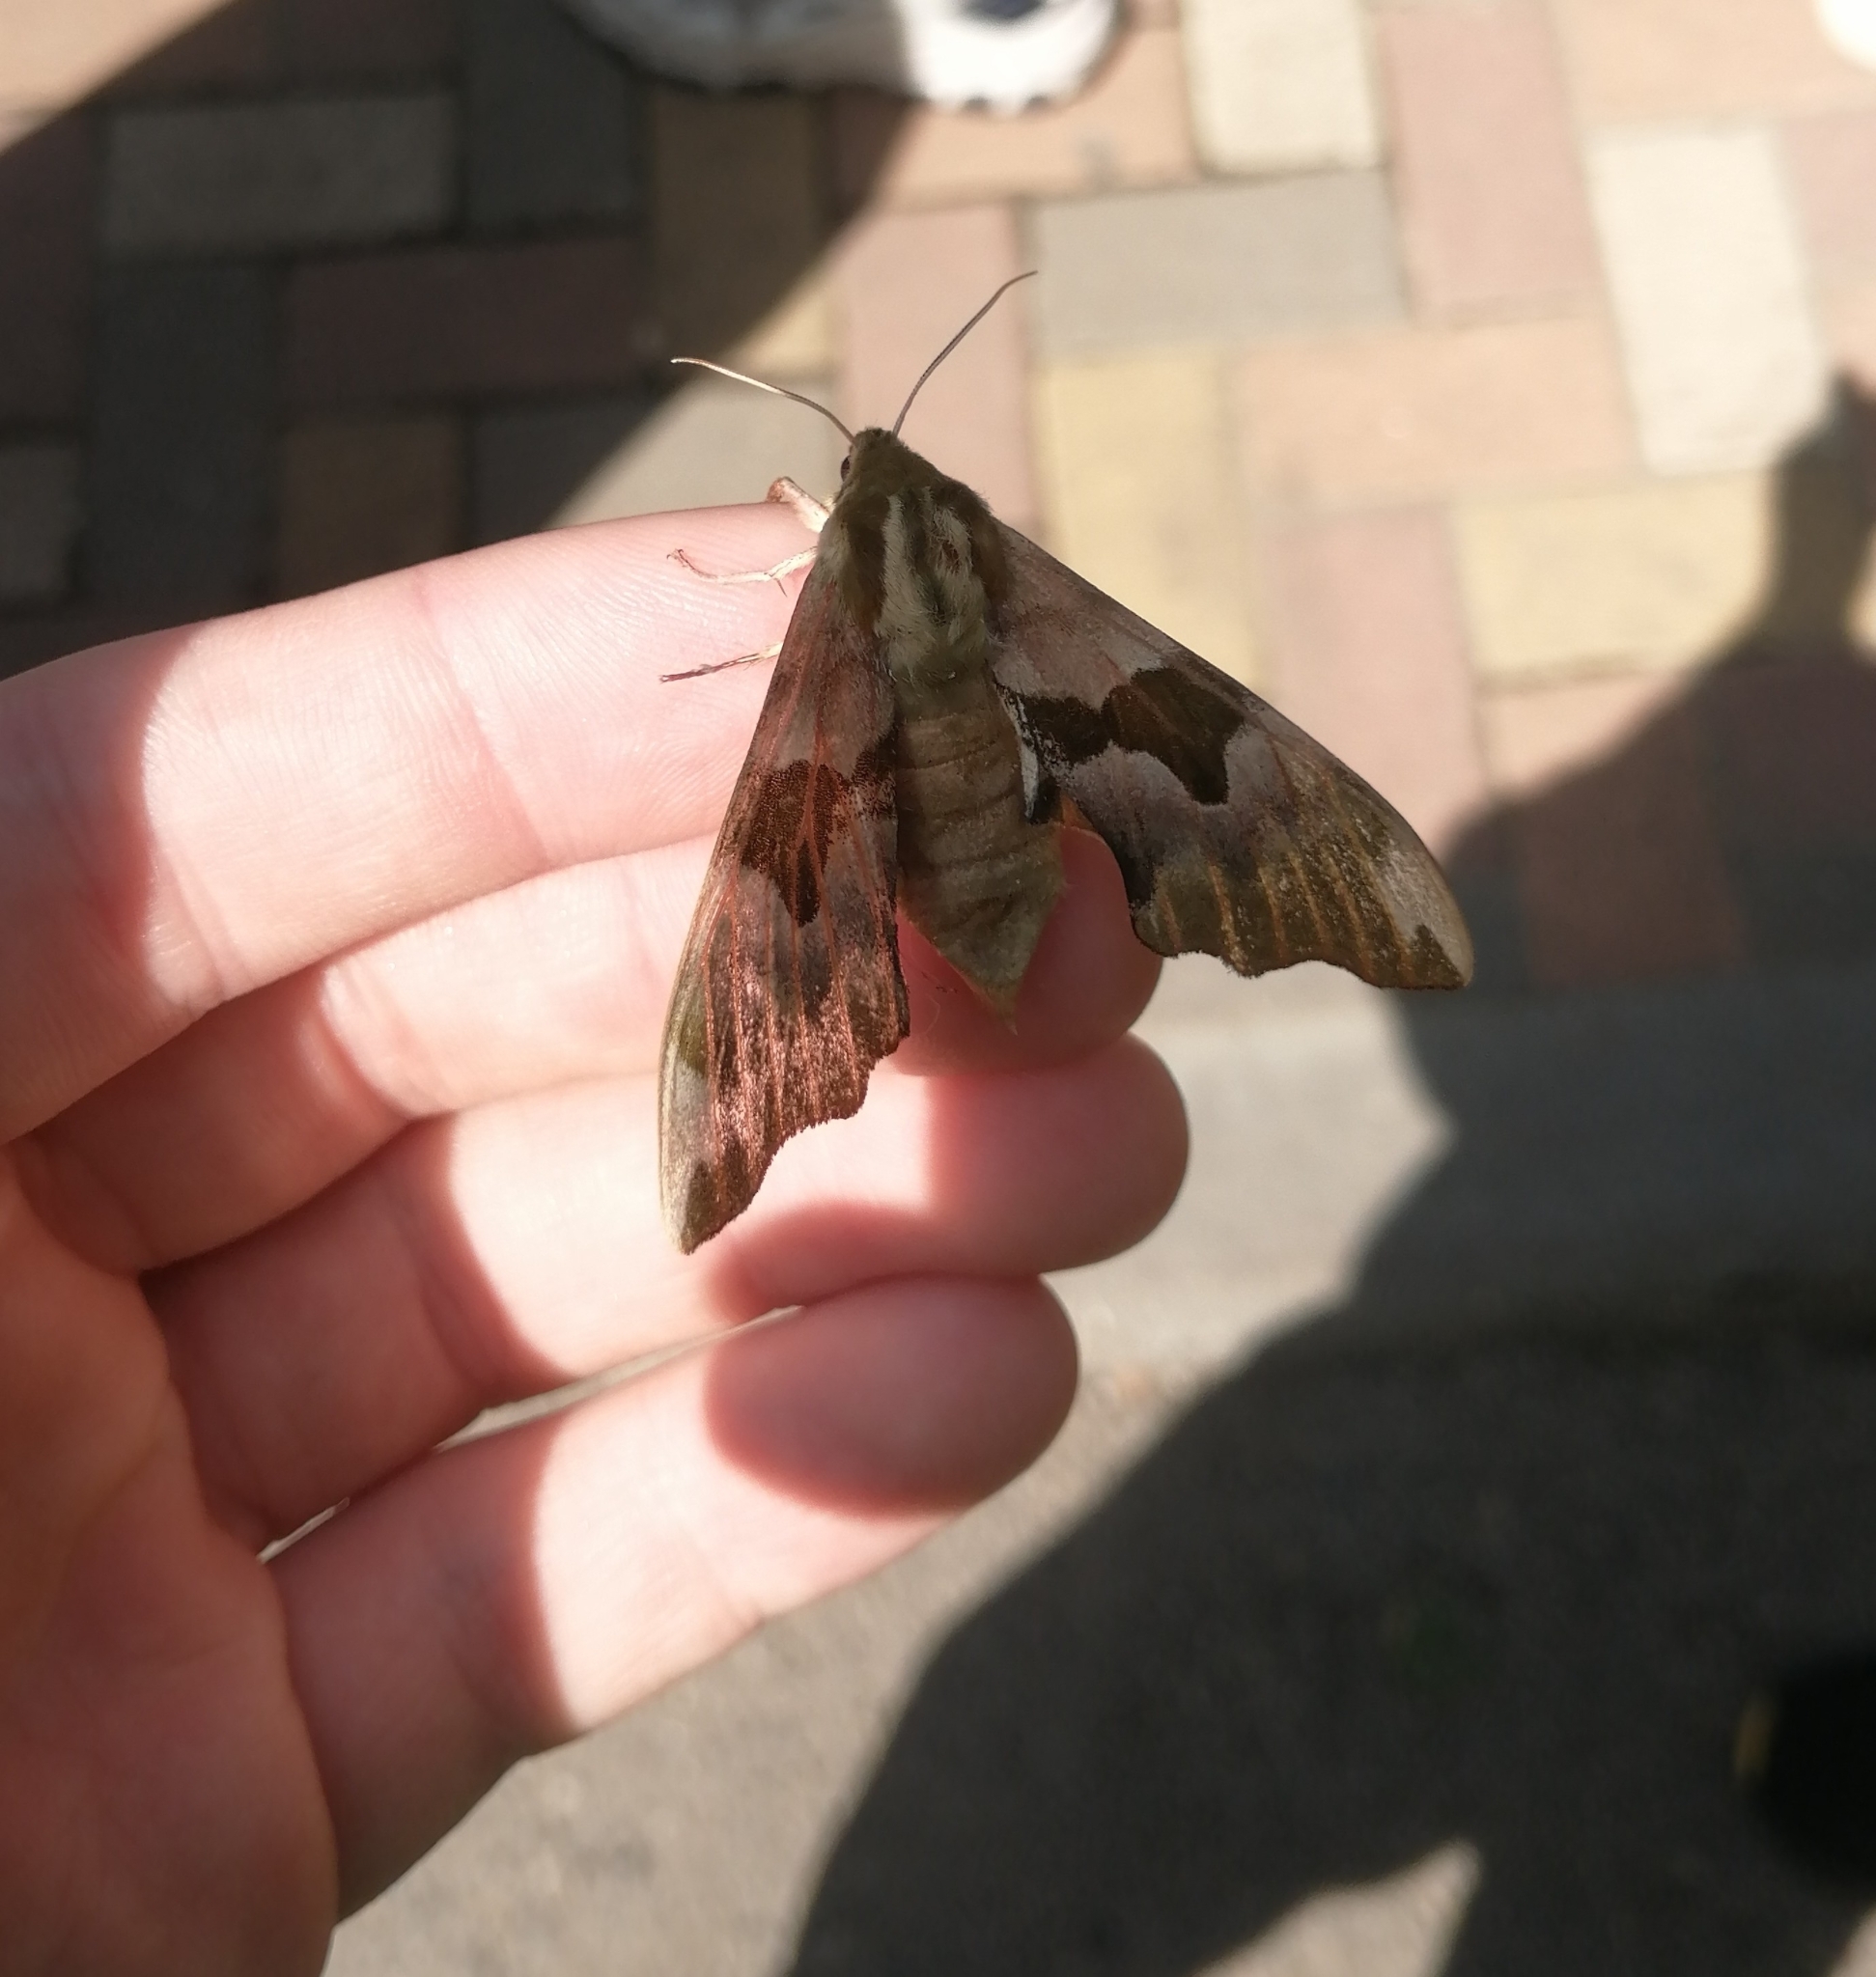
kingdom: Animalia
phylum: Arthropoda
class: Insecta
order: Lepidoptera
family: Sphingidae
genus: Mimas
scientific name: Mimas tiliae
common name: Lime hawk-moth
